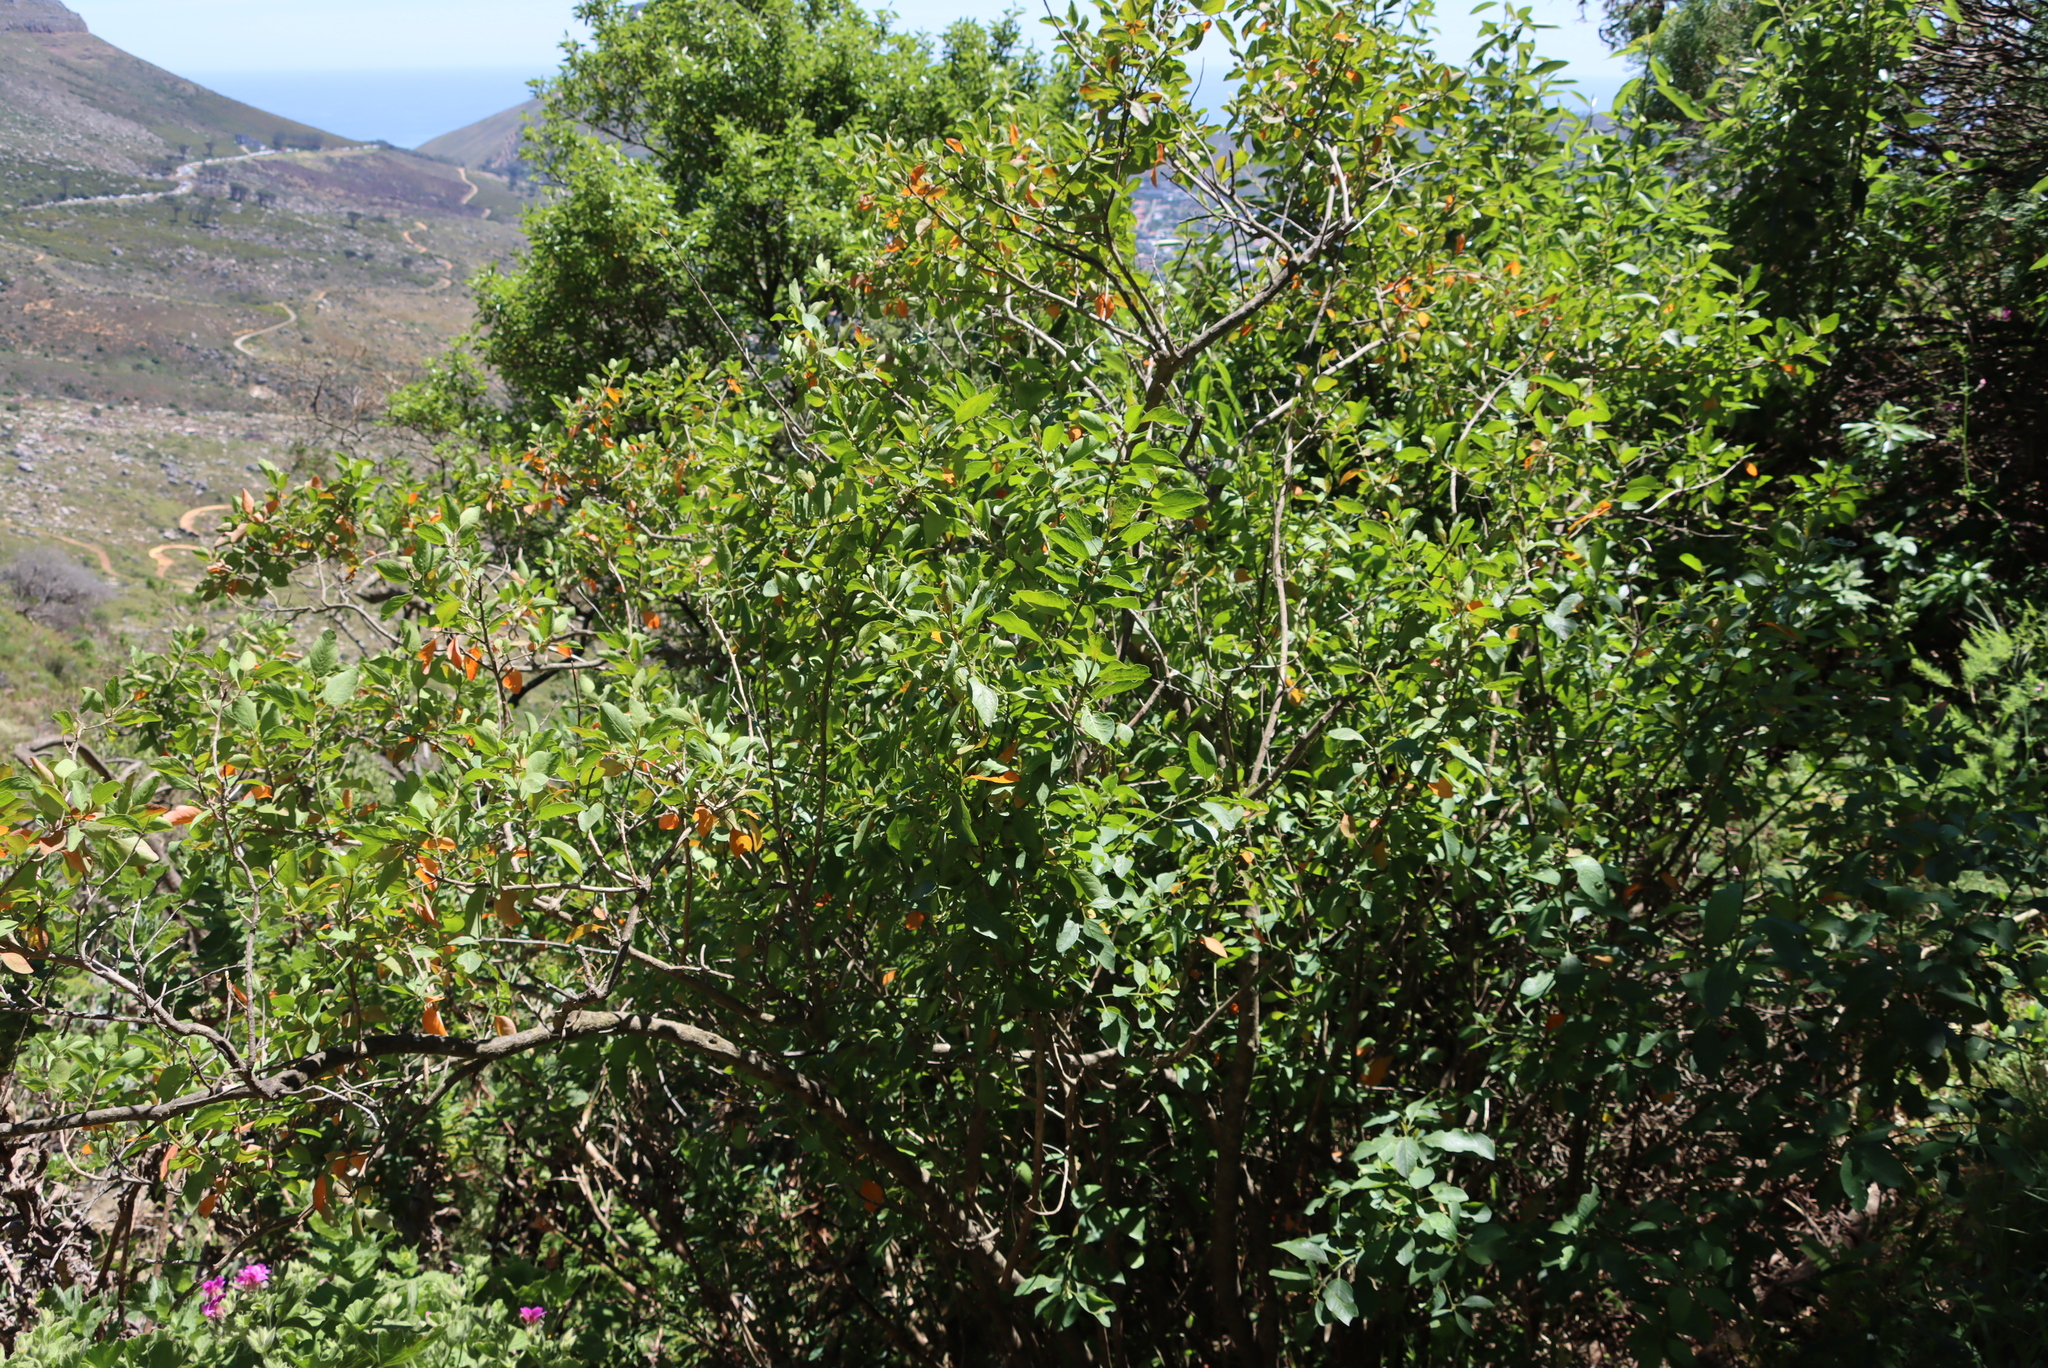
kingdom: Plantae
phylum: Tracheophyta
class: Magnoliopsida
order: Malpighiales
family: Peraceae
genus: Clutia
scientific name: Clutia pulchella
